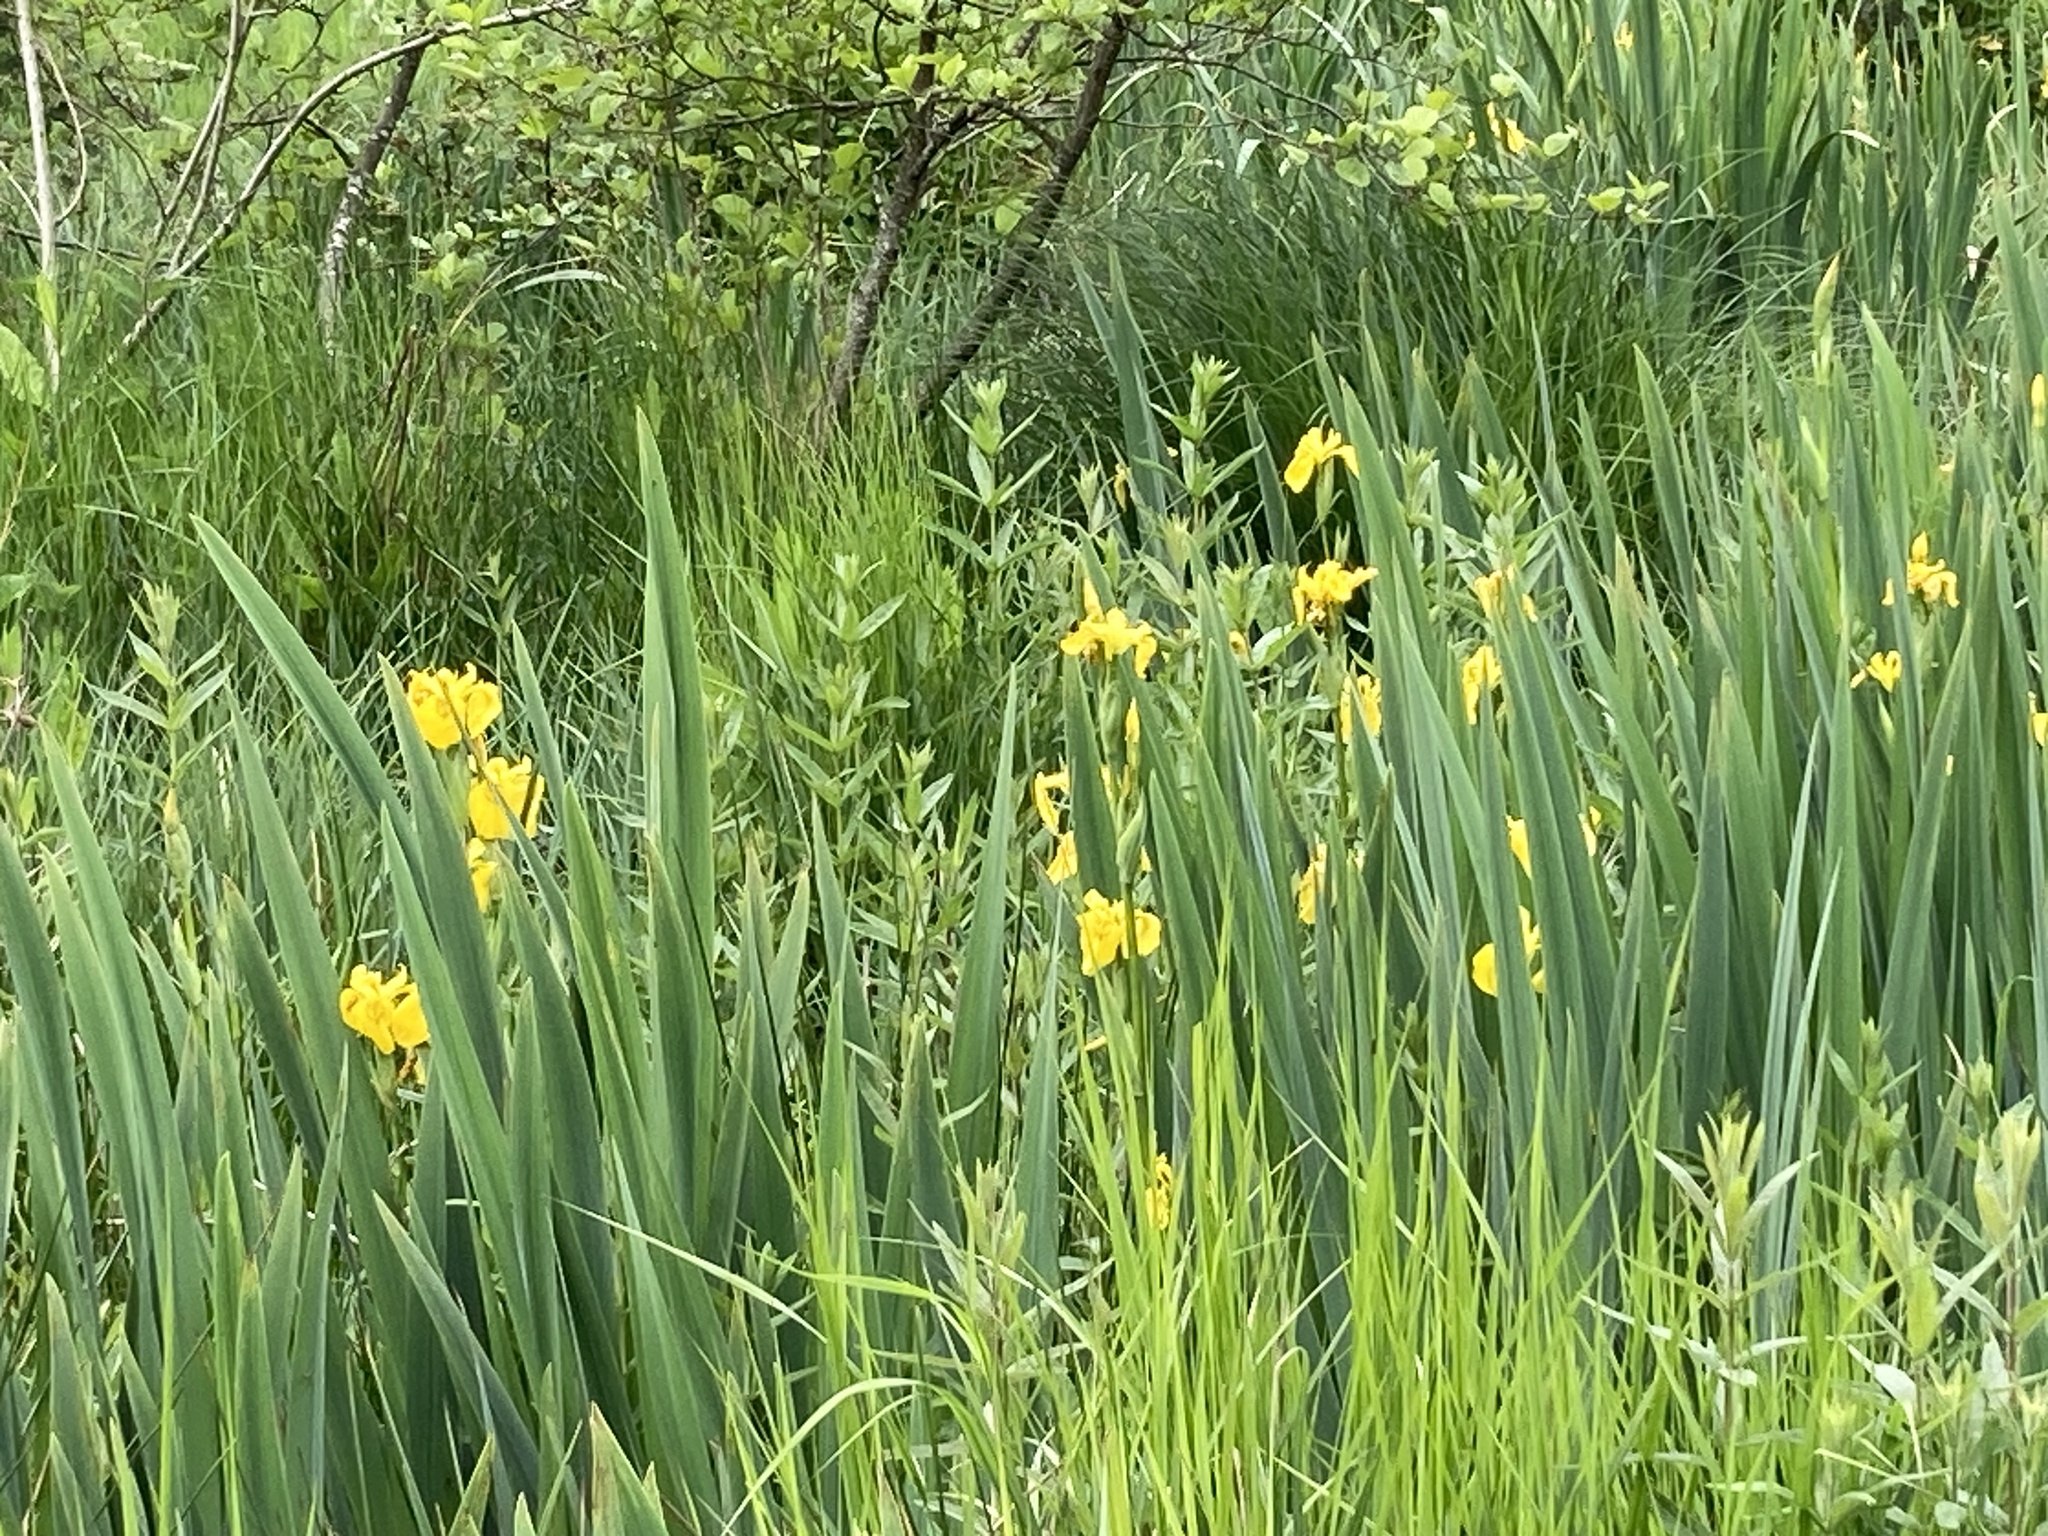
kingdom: Plantae
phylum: Tracheophyta
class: Liliopsida
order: Asparagales
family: Iridaceae
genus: Iris
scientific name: Iris pseudacorus
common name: Yellow flag
